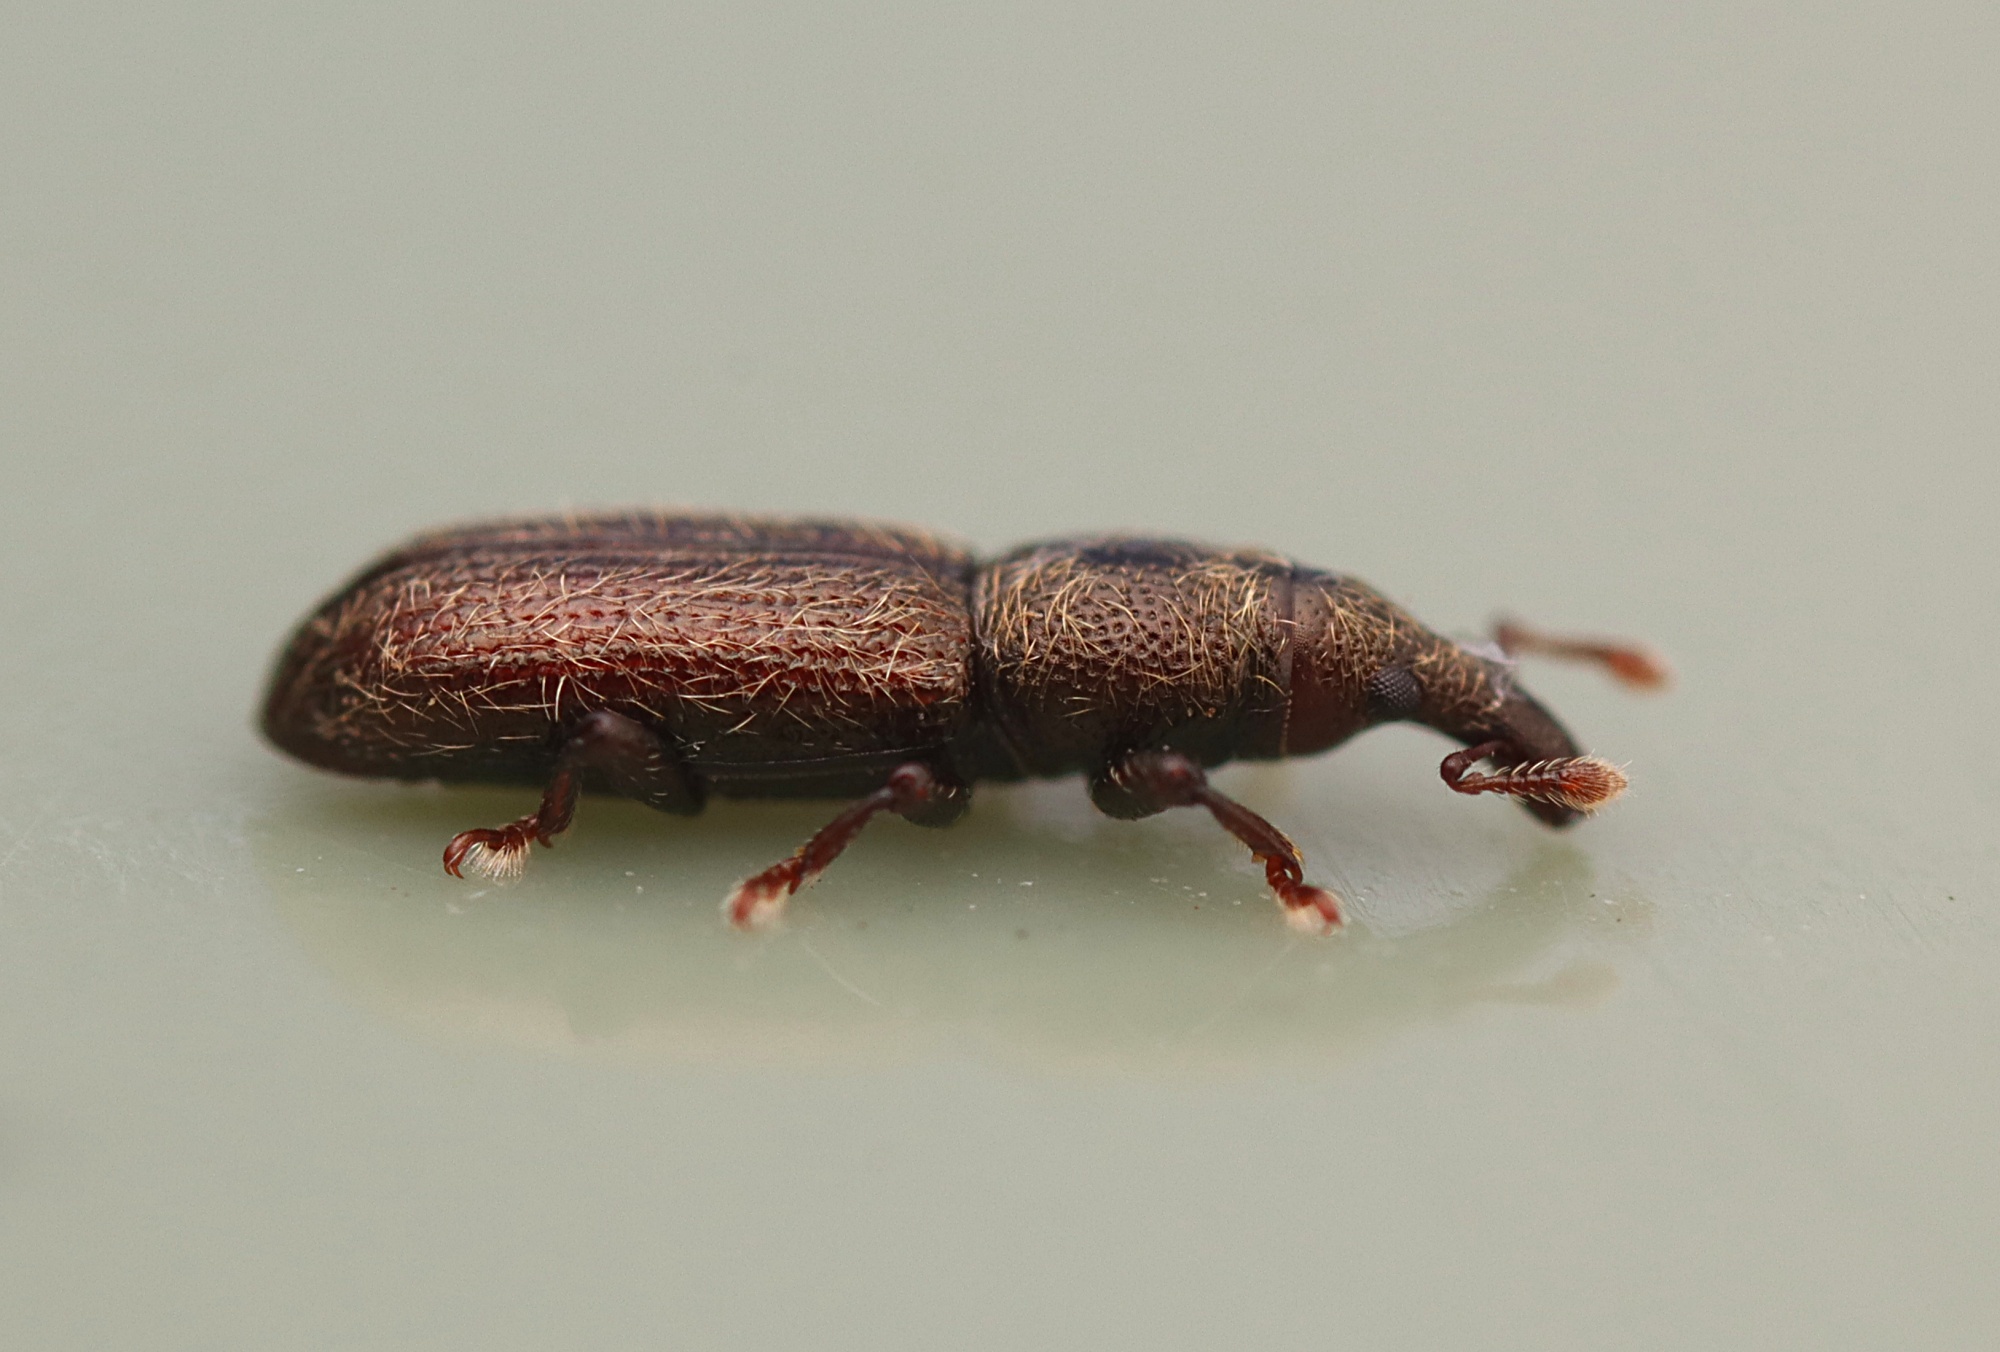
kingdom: Animalia
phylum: Arthropoda
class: Insecta
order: Coleoptera
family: Curculionidae
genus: Sericotrogus
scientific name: Sericotrogus subaenescens
